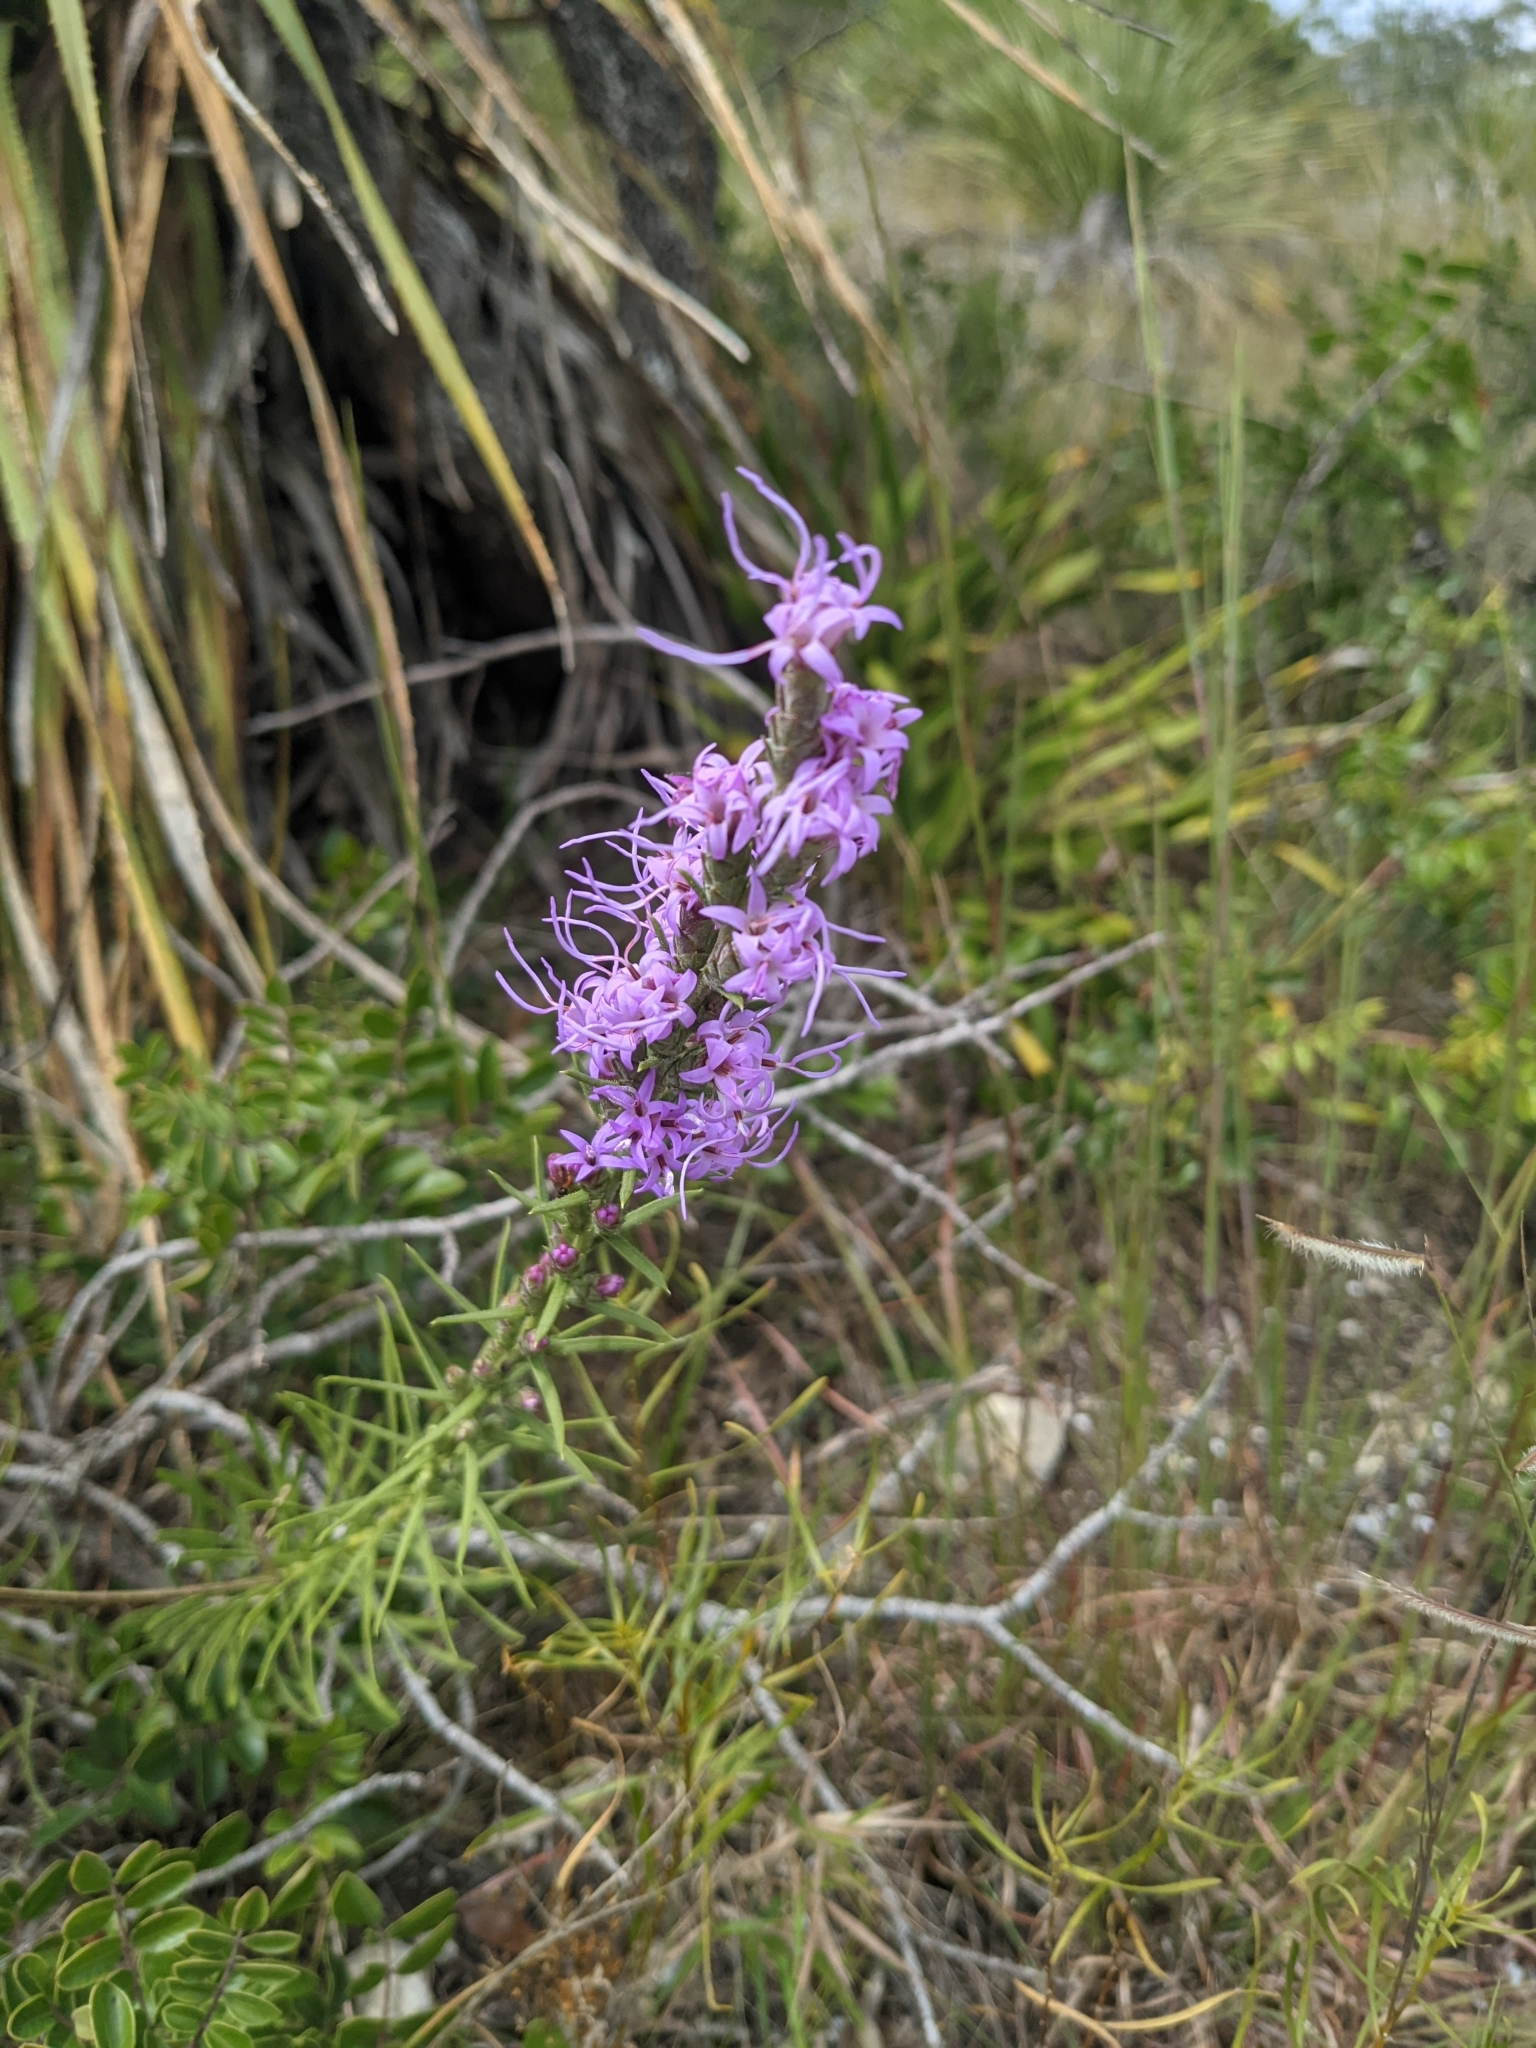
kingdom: Plantae
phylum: Tracheophyta
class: Magnoliopsida
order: Asterales
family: Asteraceae
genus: Liatris
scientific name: Liatris punctata
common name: Dotted gayfeather
